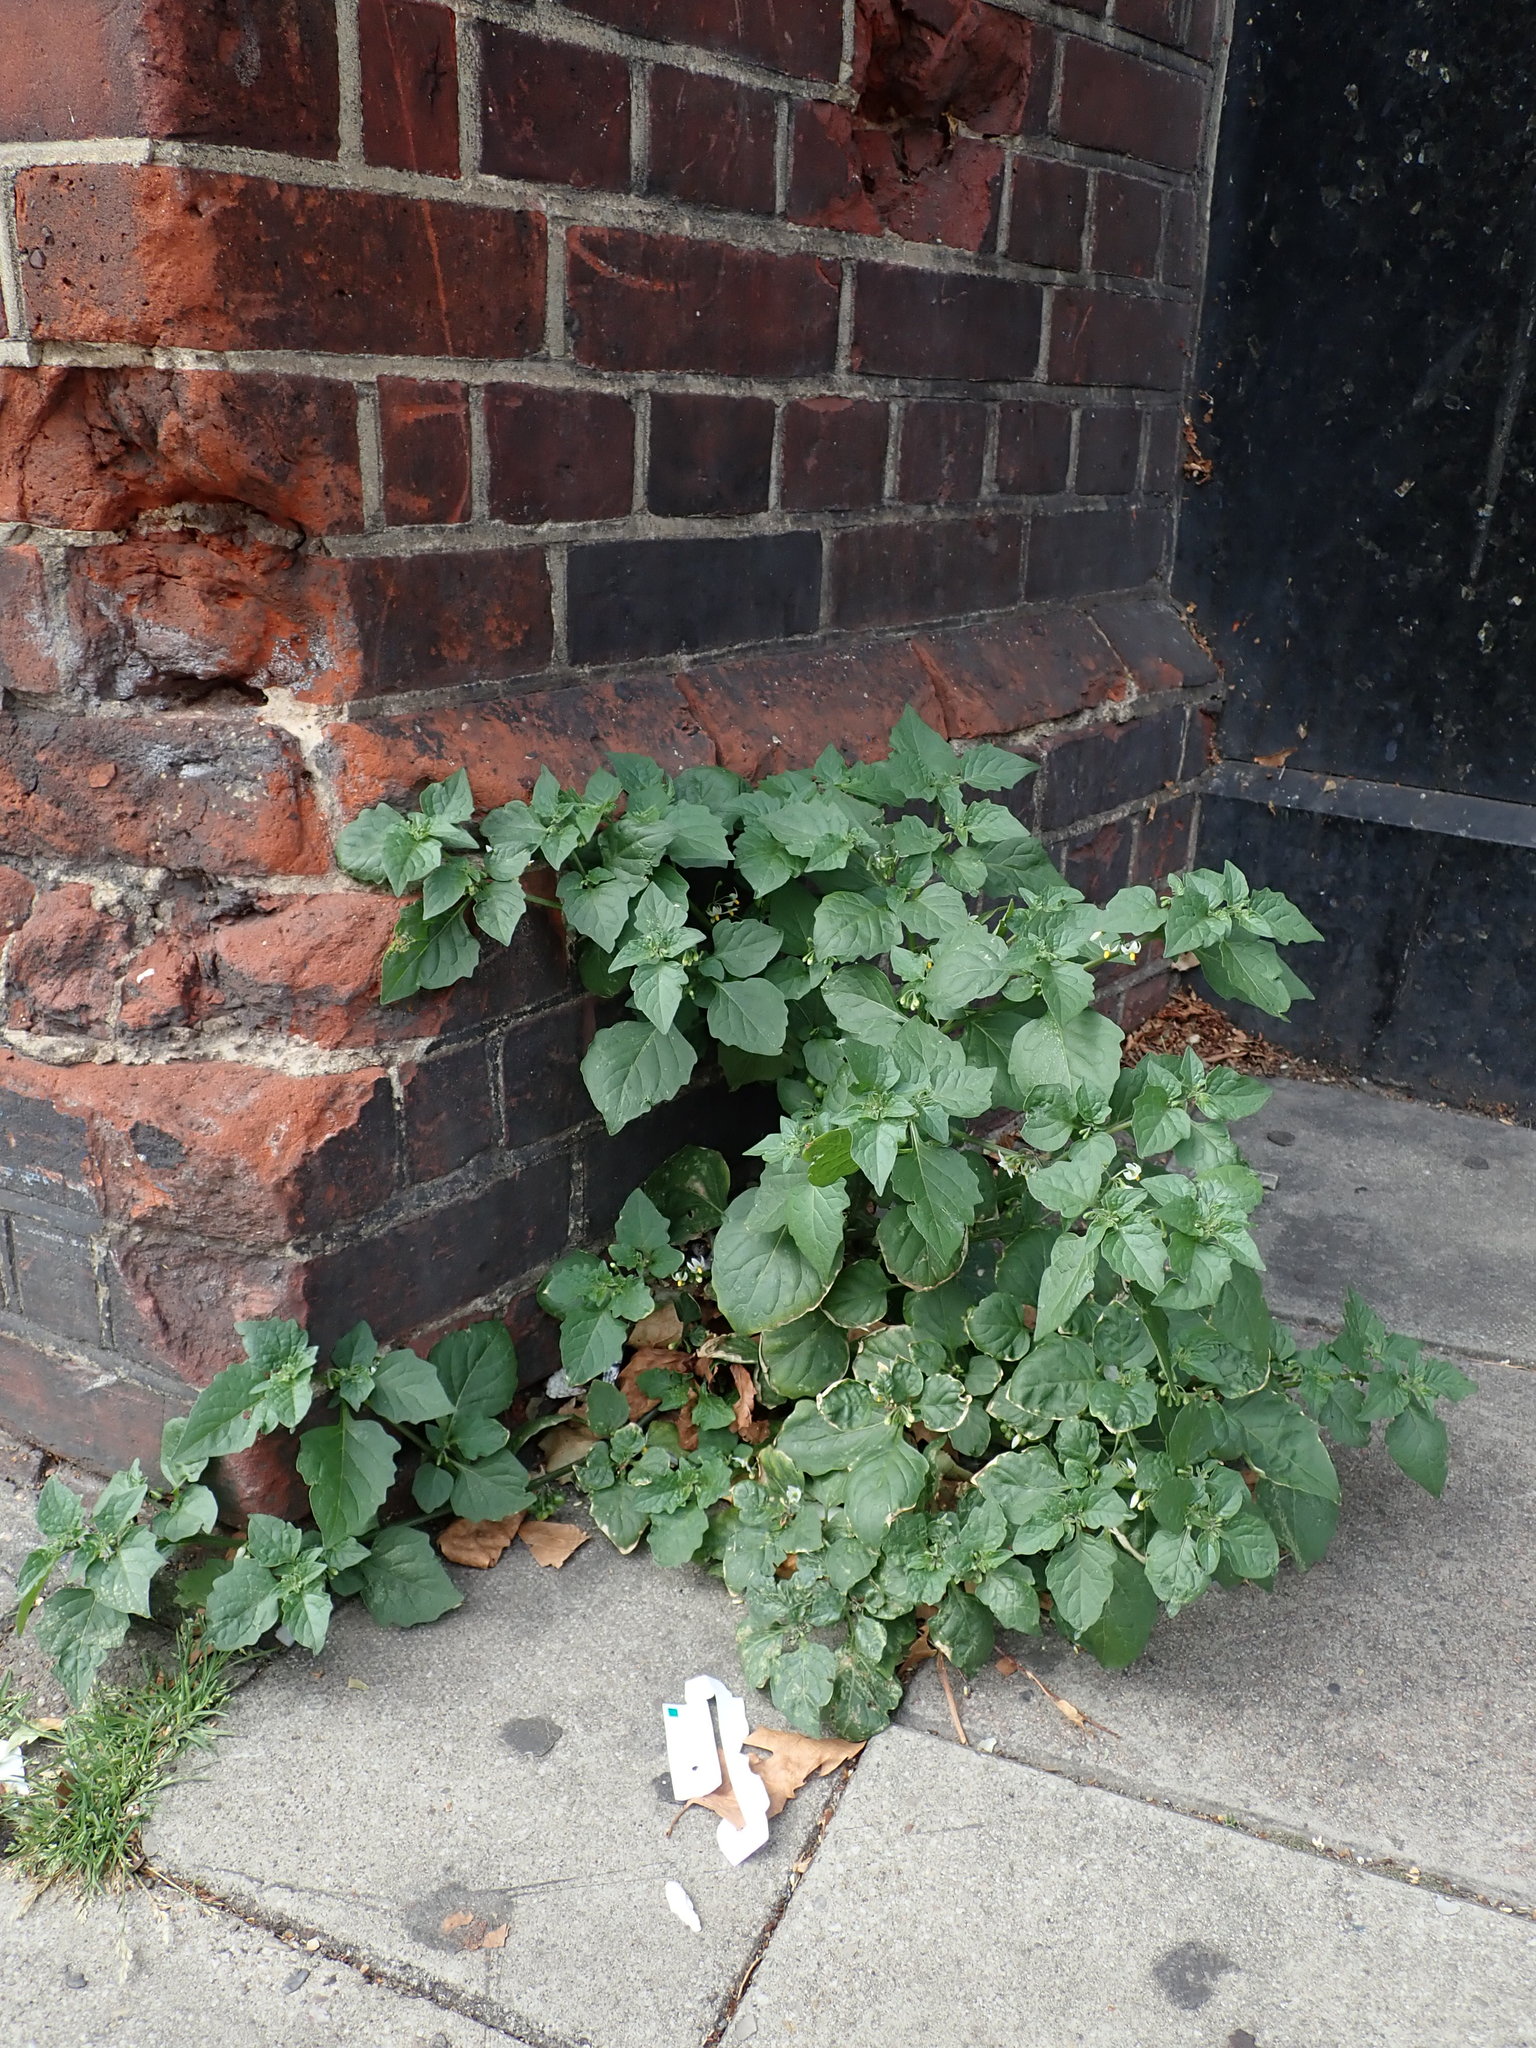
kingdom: Plantae
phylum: Tracheophyta
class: Magnoliopsida
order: Solanales
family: Solanaceae
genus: Solanum
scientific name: Solanum nigrum
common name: Black nightshade
